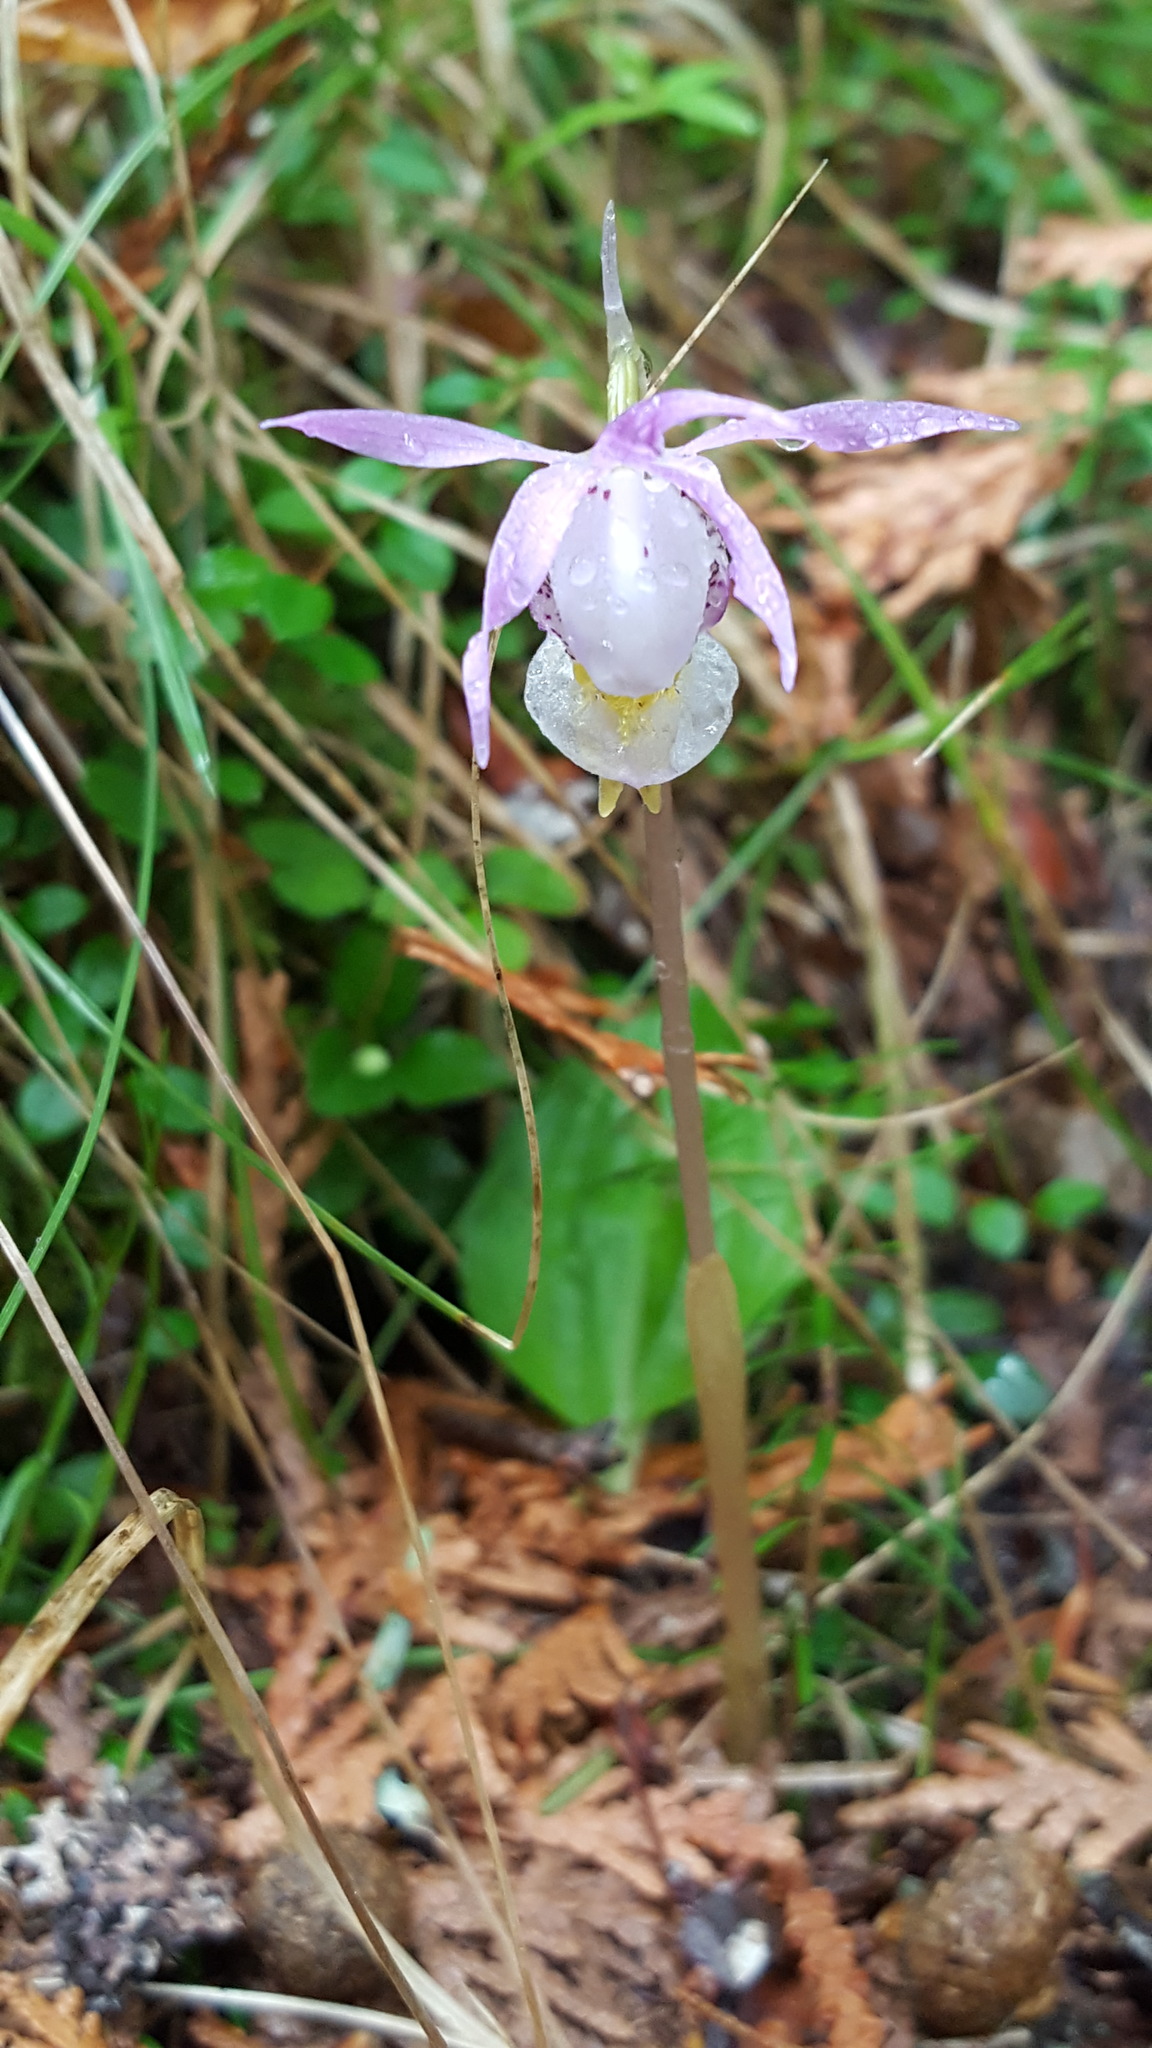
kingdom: Plantae
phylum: Tracheophyta
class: Liliopsida
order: Asparagales
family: Orchidaceae
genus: Calypso
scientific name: Calypso bulbosa
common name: Calypso
